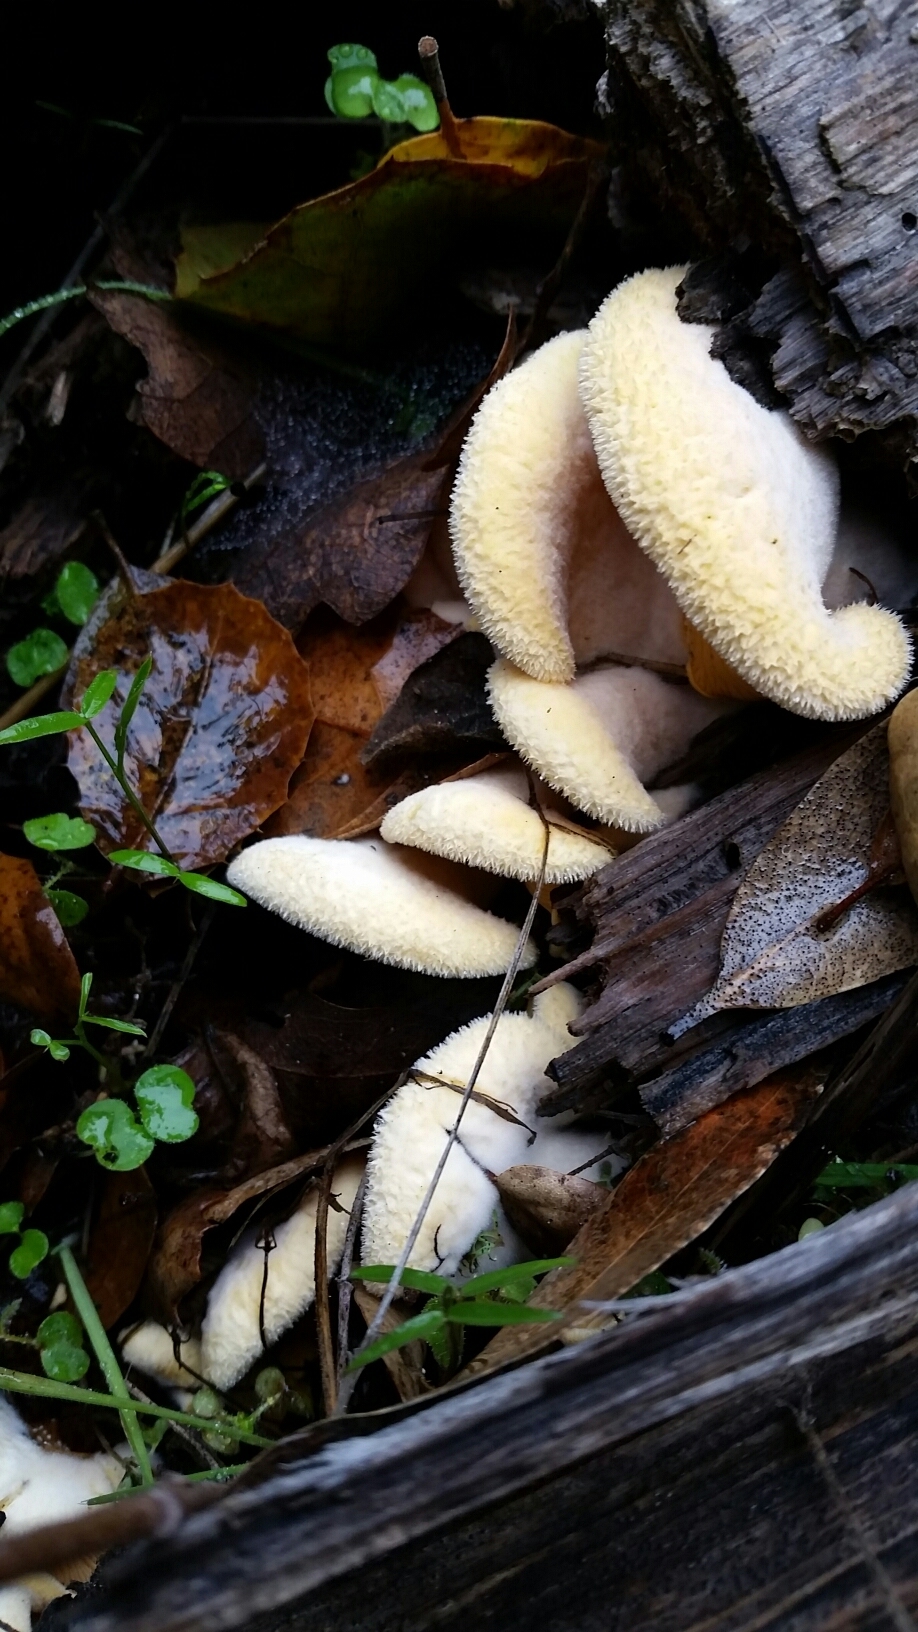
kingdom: Fungi
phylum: Basidiomycota
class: Agaricomycetes
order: Agaricales
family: Phyllotopsidaceae
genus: Phyllotopsis
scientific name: Phyllotopsis nidulans
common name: Orange mock oyster
